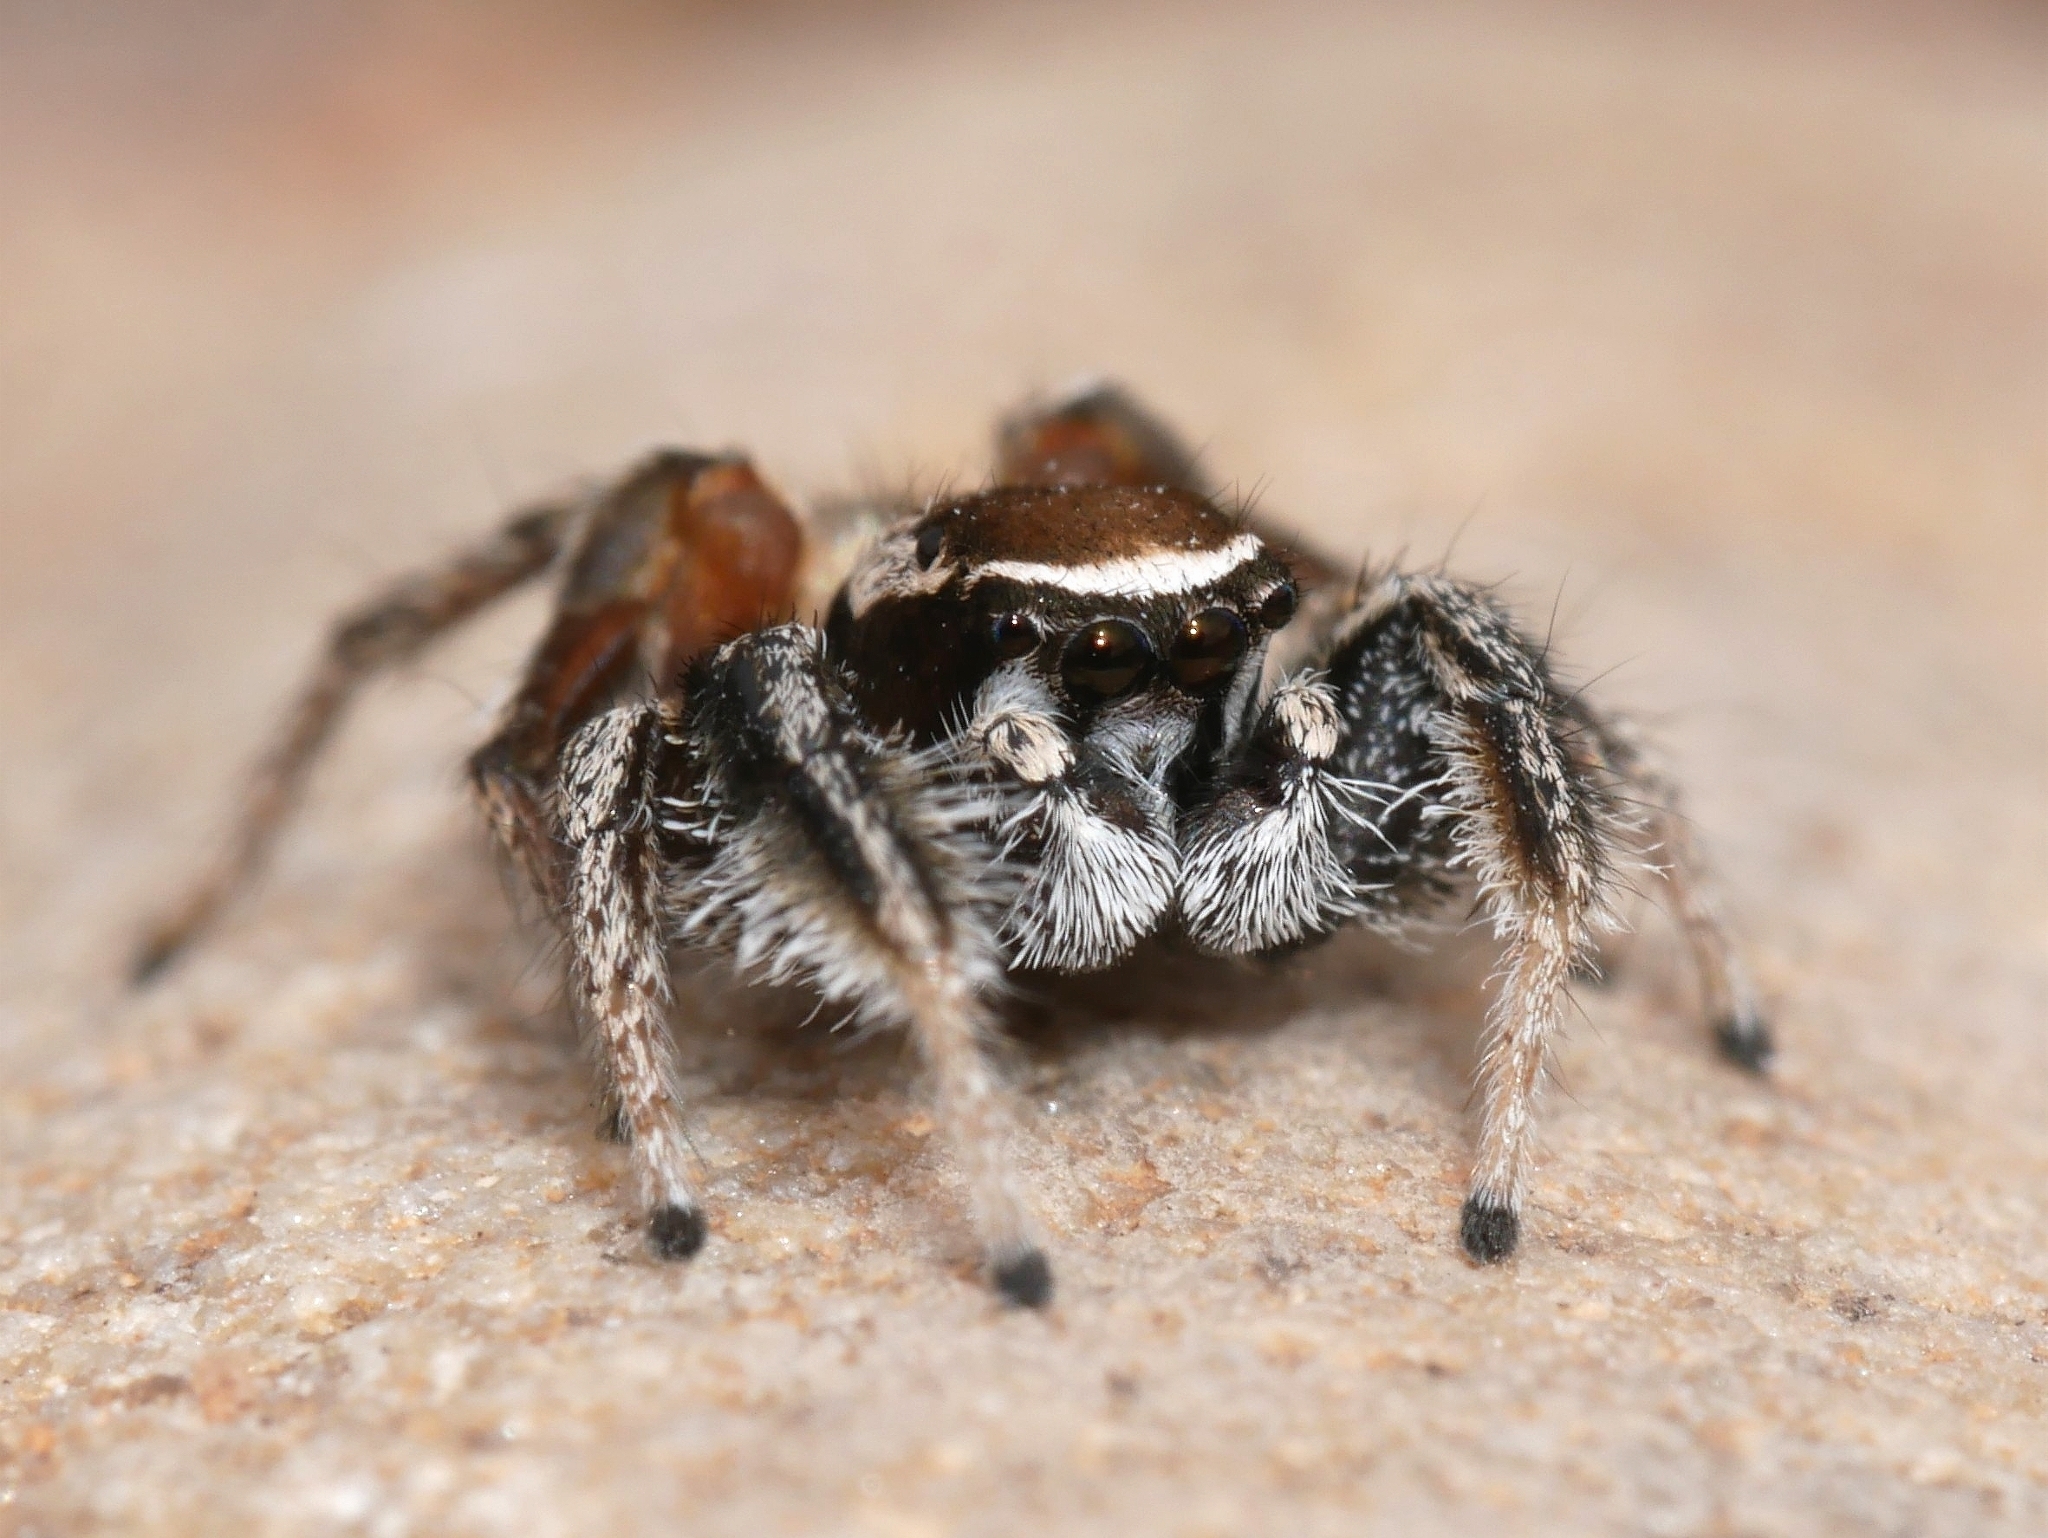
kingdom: Animalia
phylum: Arthropoda
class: Arachnida
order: Araneae
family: Salticidae
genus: Habronattus
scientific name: Habronattus clypeatus
